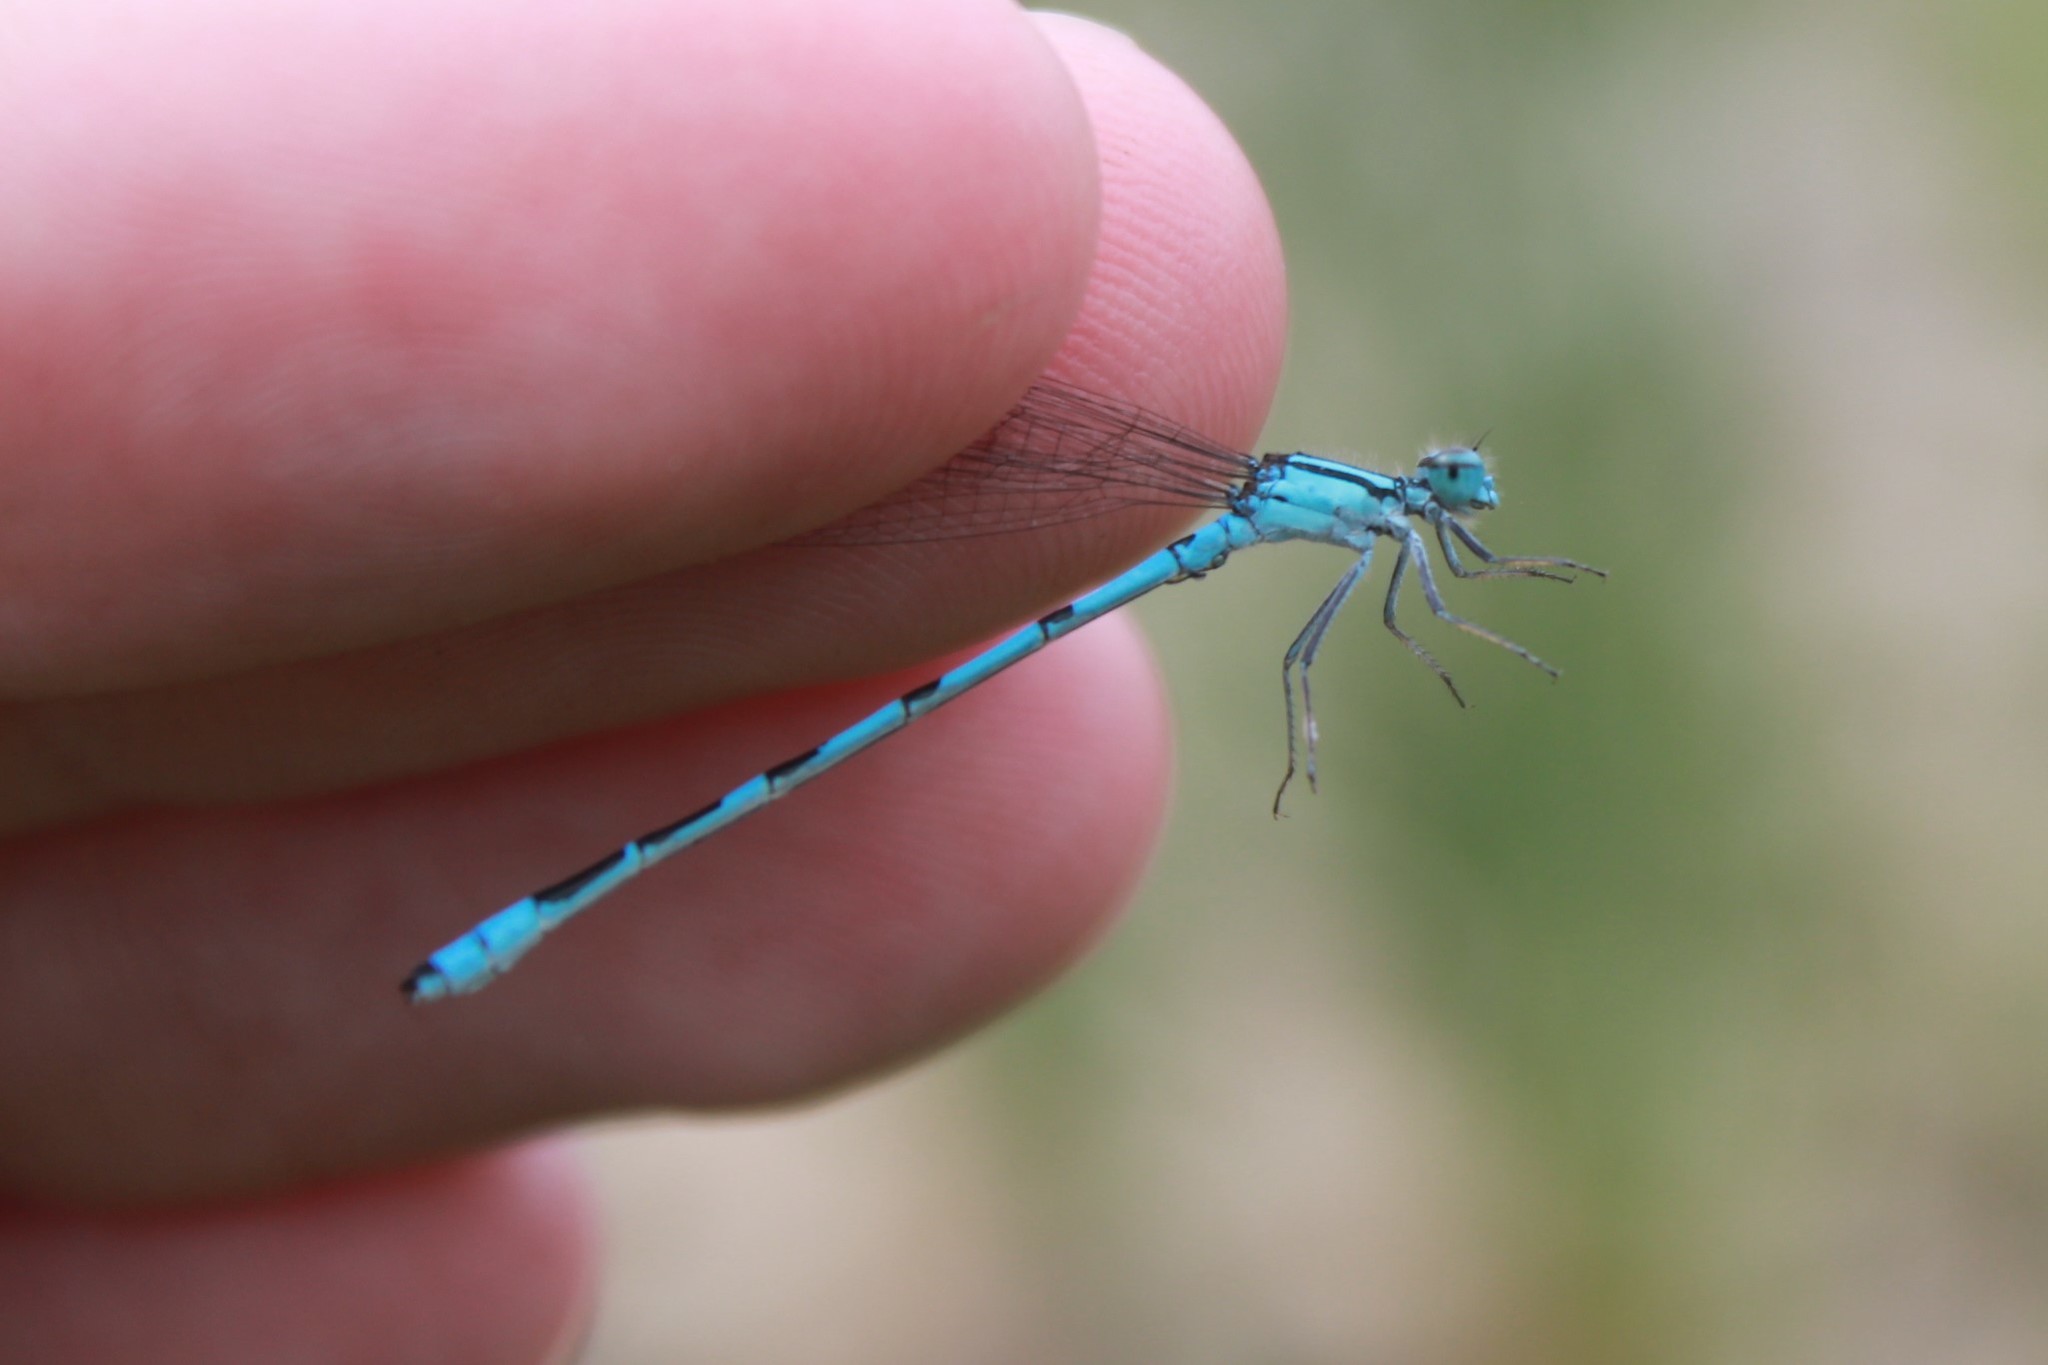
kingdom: Animalia
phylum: Arthropoda
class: Insecta
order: Odonata
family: Coenagrionidae
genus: Enallagma
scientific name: Enallagma ebrium
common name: Marsh bluet
